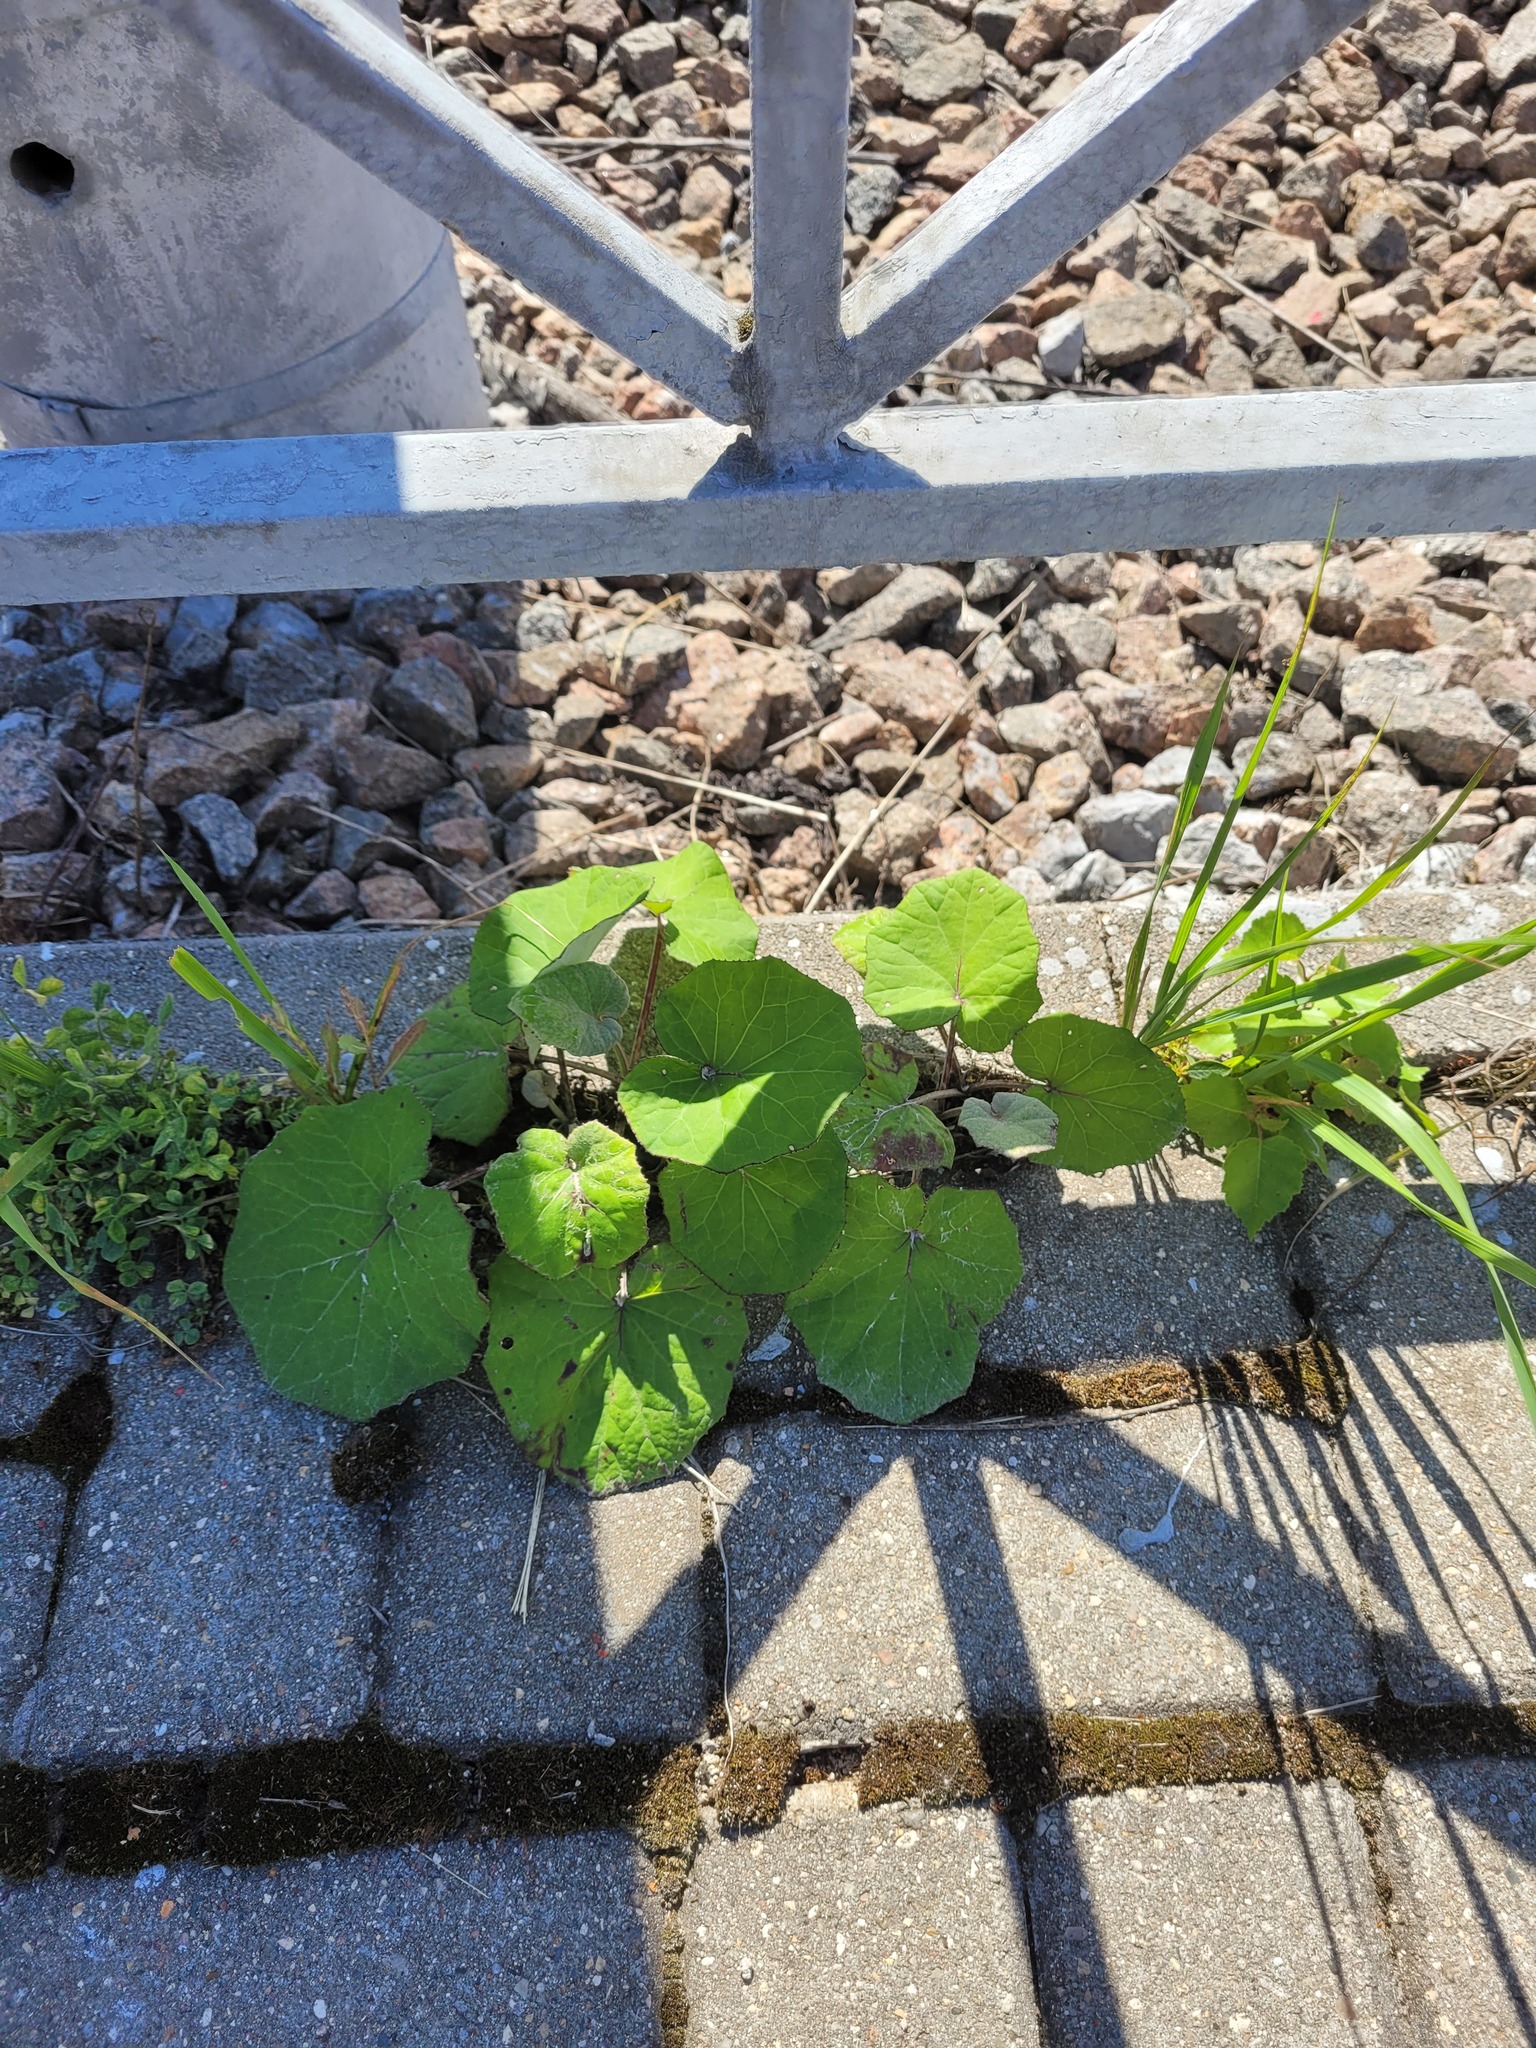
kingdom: Plantae
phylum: Tracheophyta
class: Magnoliopsida
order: Asterales
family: Asteraceae
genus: Tussilago
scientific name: Tussilago farfara
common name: Coltsfoot
